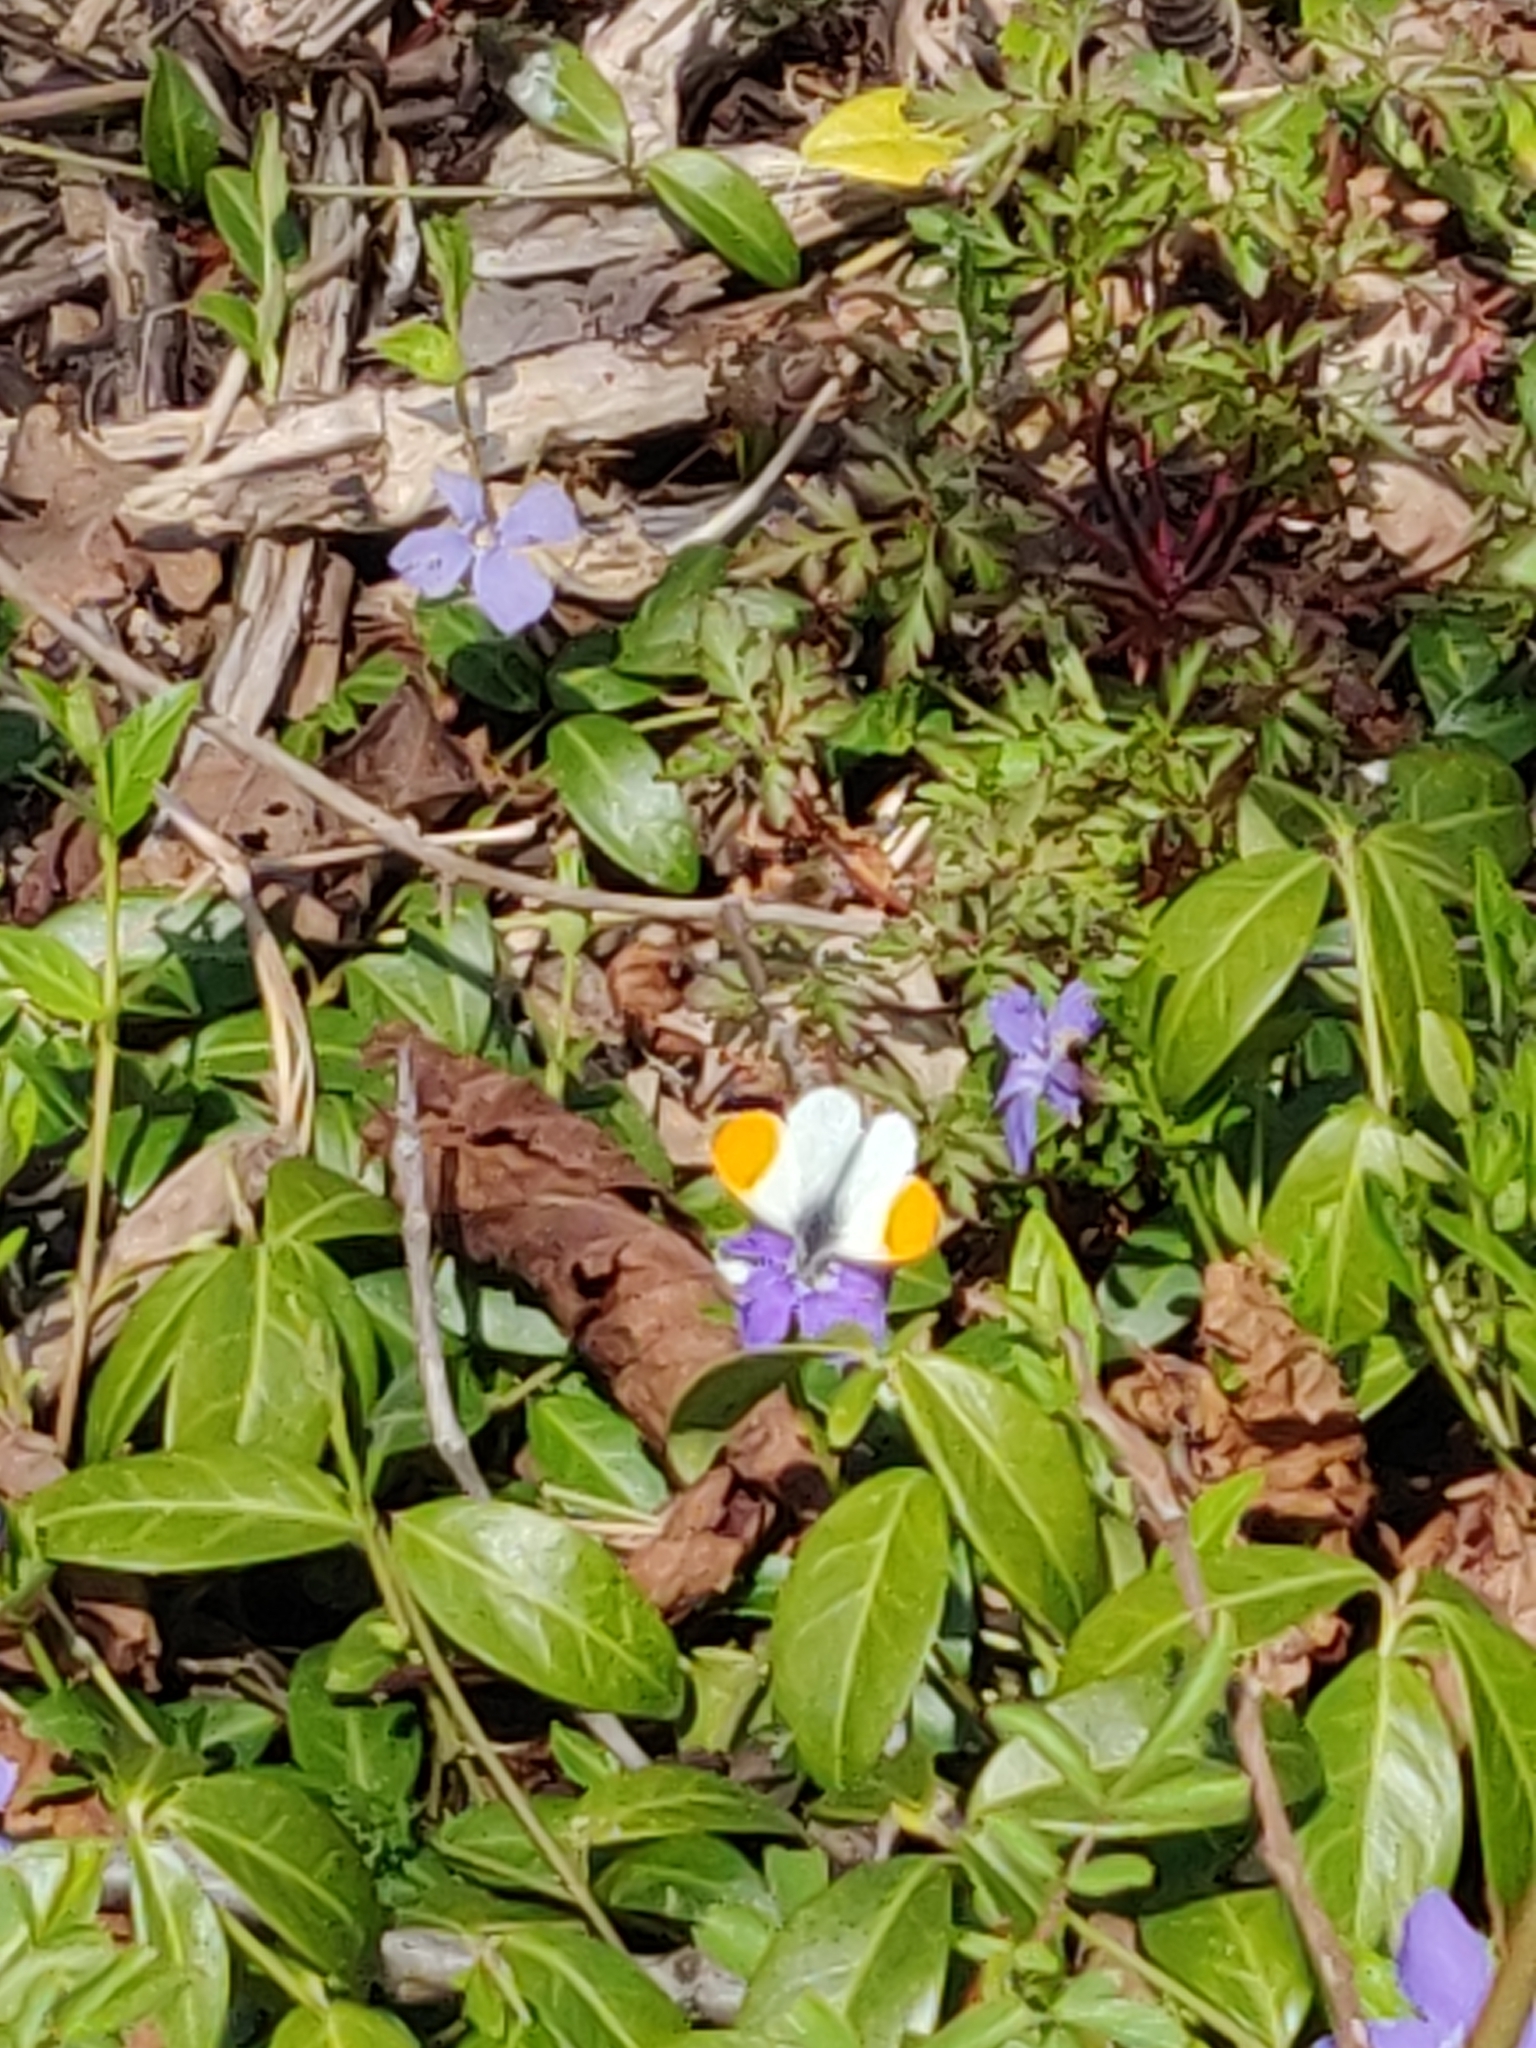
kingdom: Animalia
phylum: Arthropoda
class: Insecta
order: Lepidoptera
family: Pieridae
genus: Anthocharis
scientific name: Anthocharis cardamines
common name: Orange-tip
